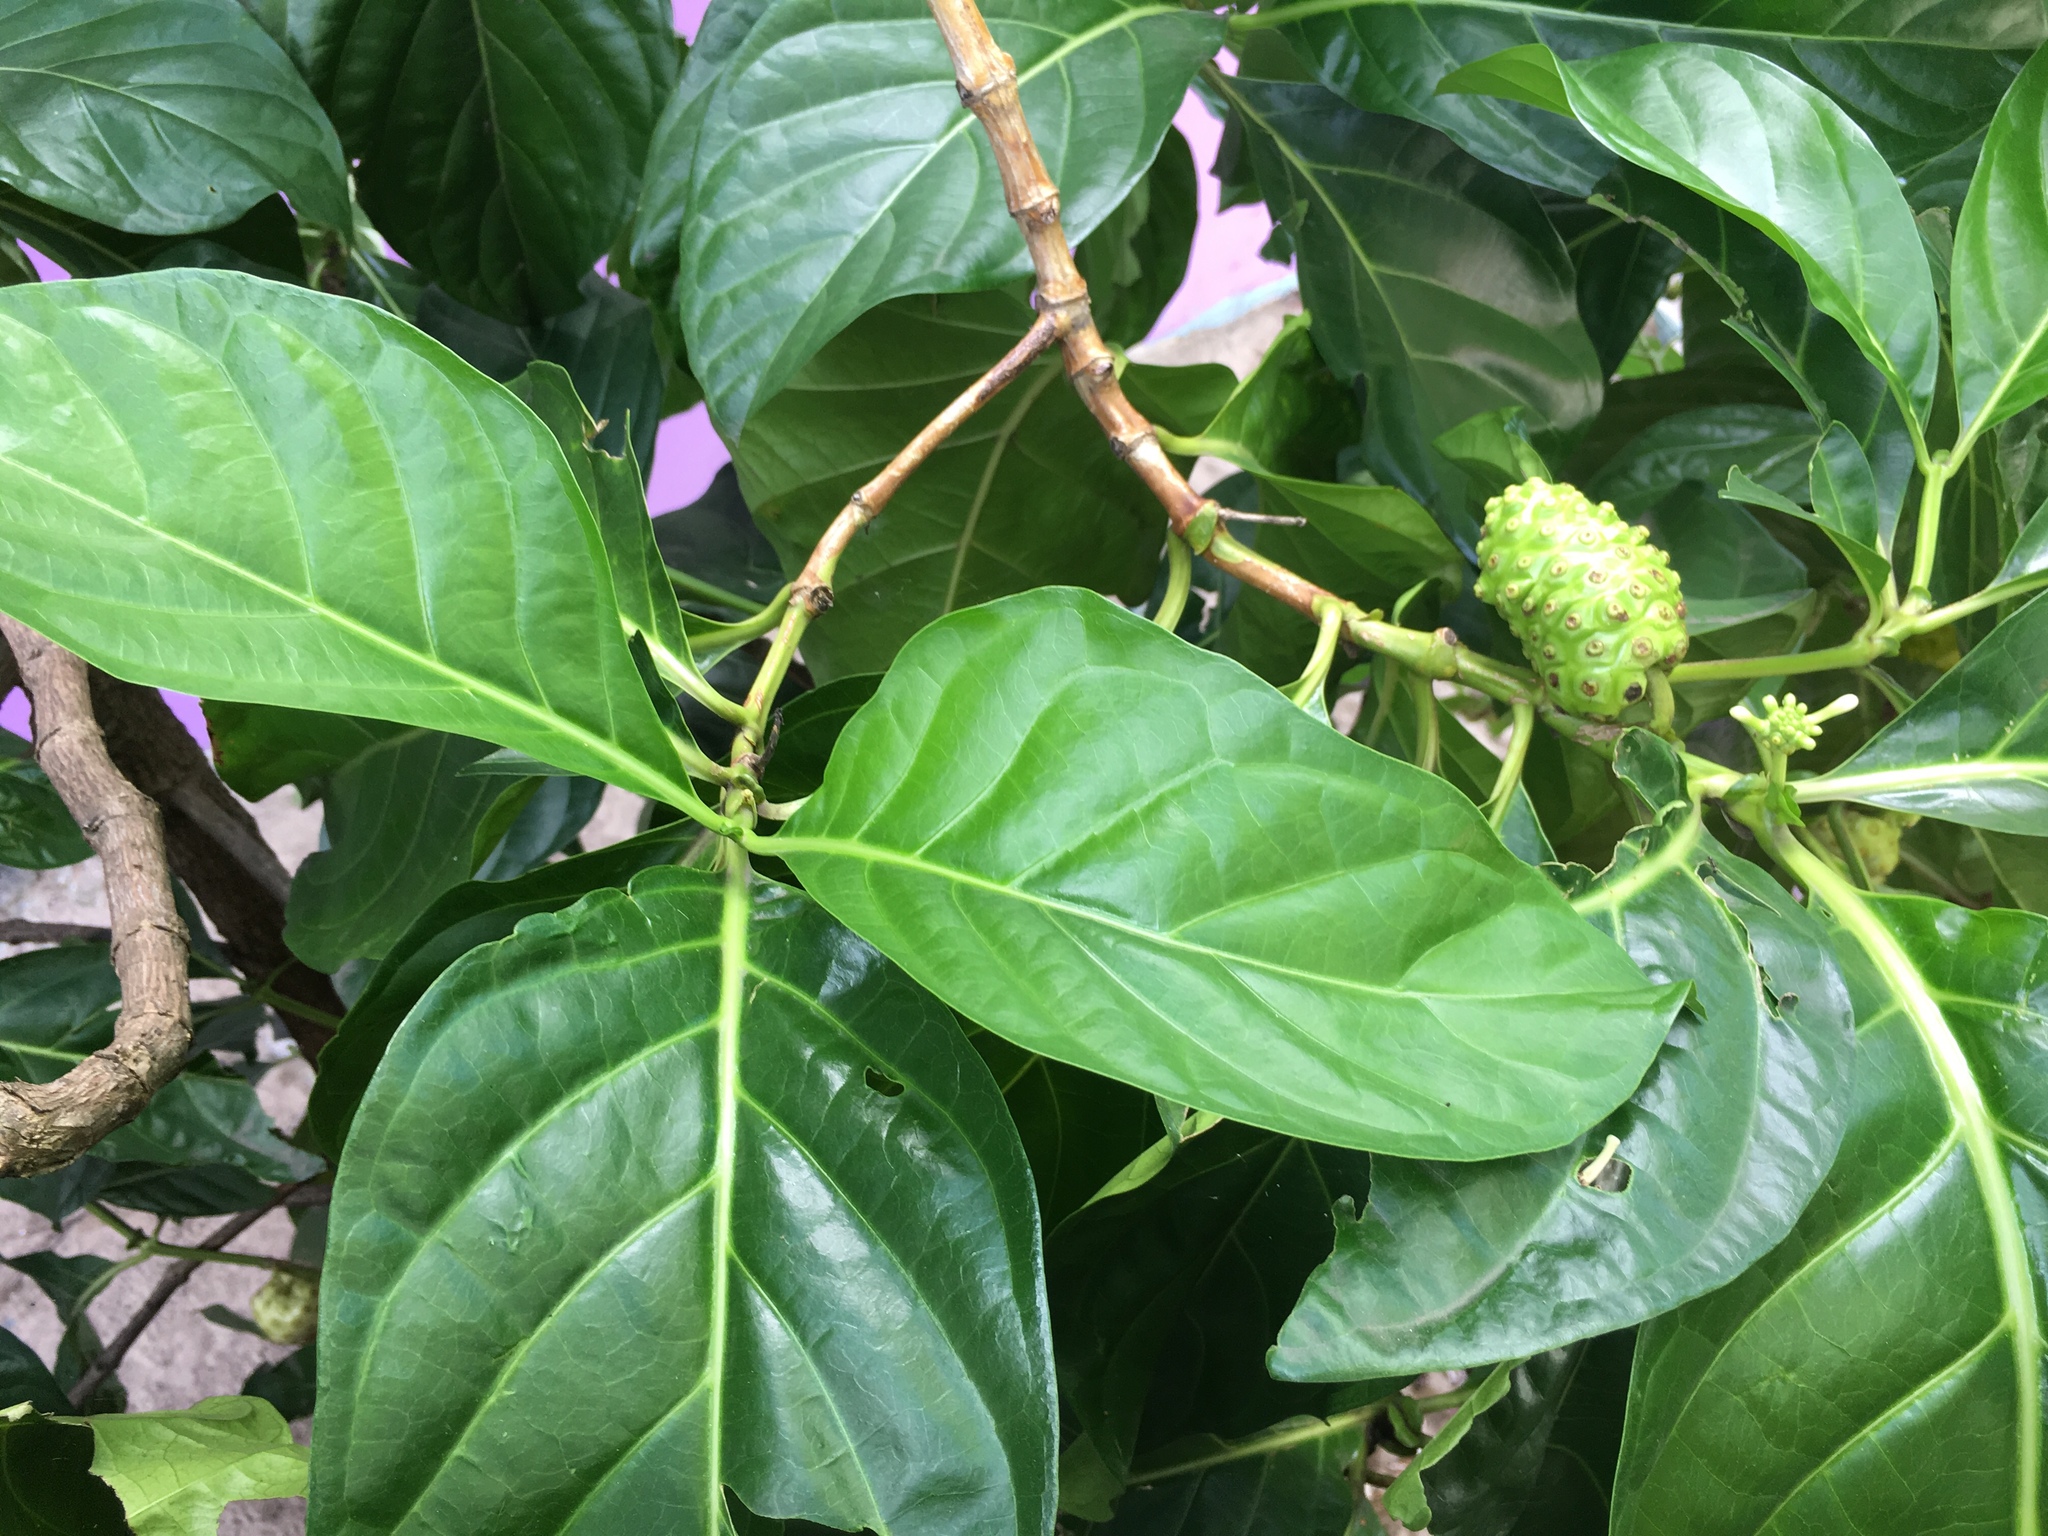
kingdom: Plantae
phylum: Tracheophyta
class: Magnoliopsida
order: Gentianales
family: Rubiaceae
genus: Morinda
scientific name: Morinda citrifolia
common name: Indian-mulberry
